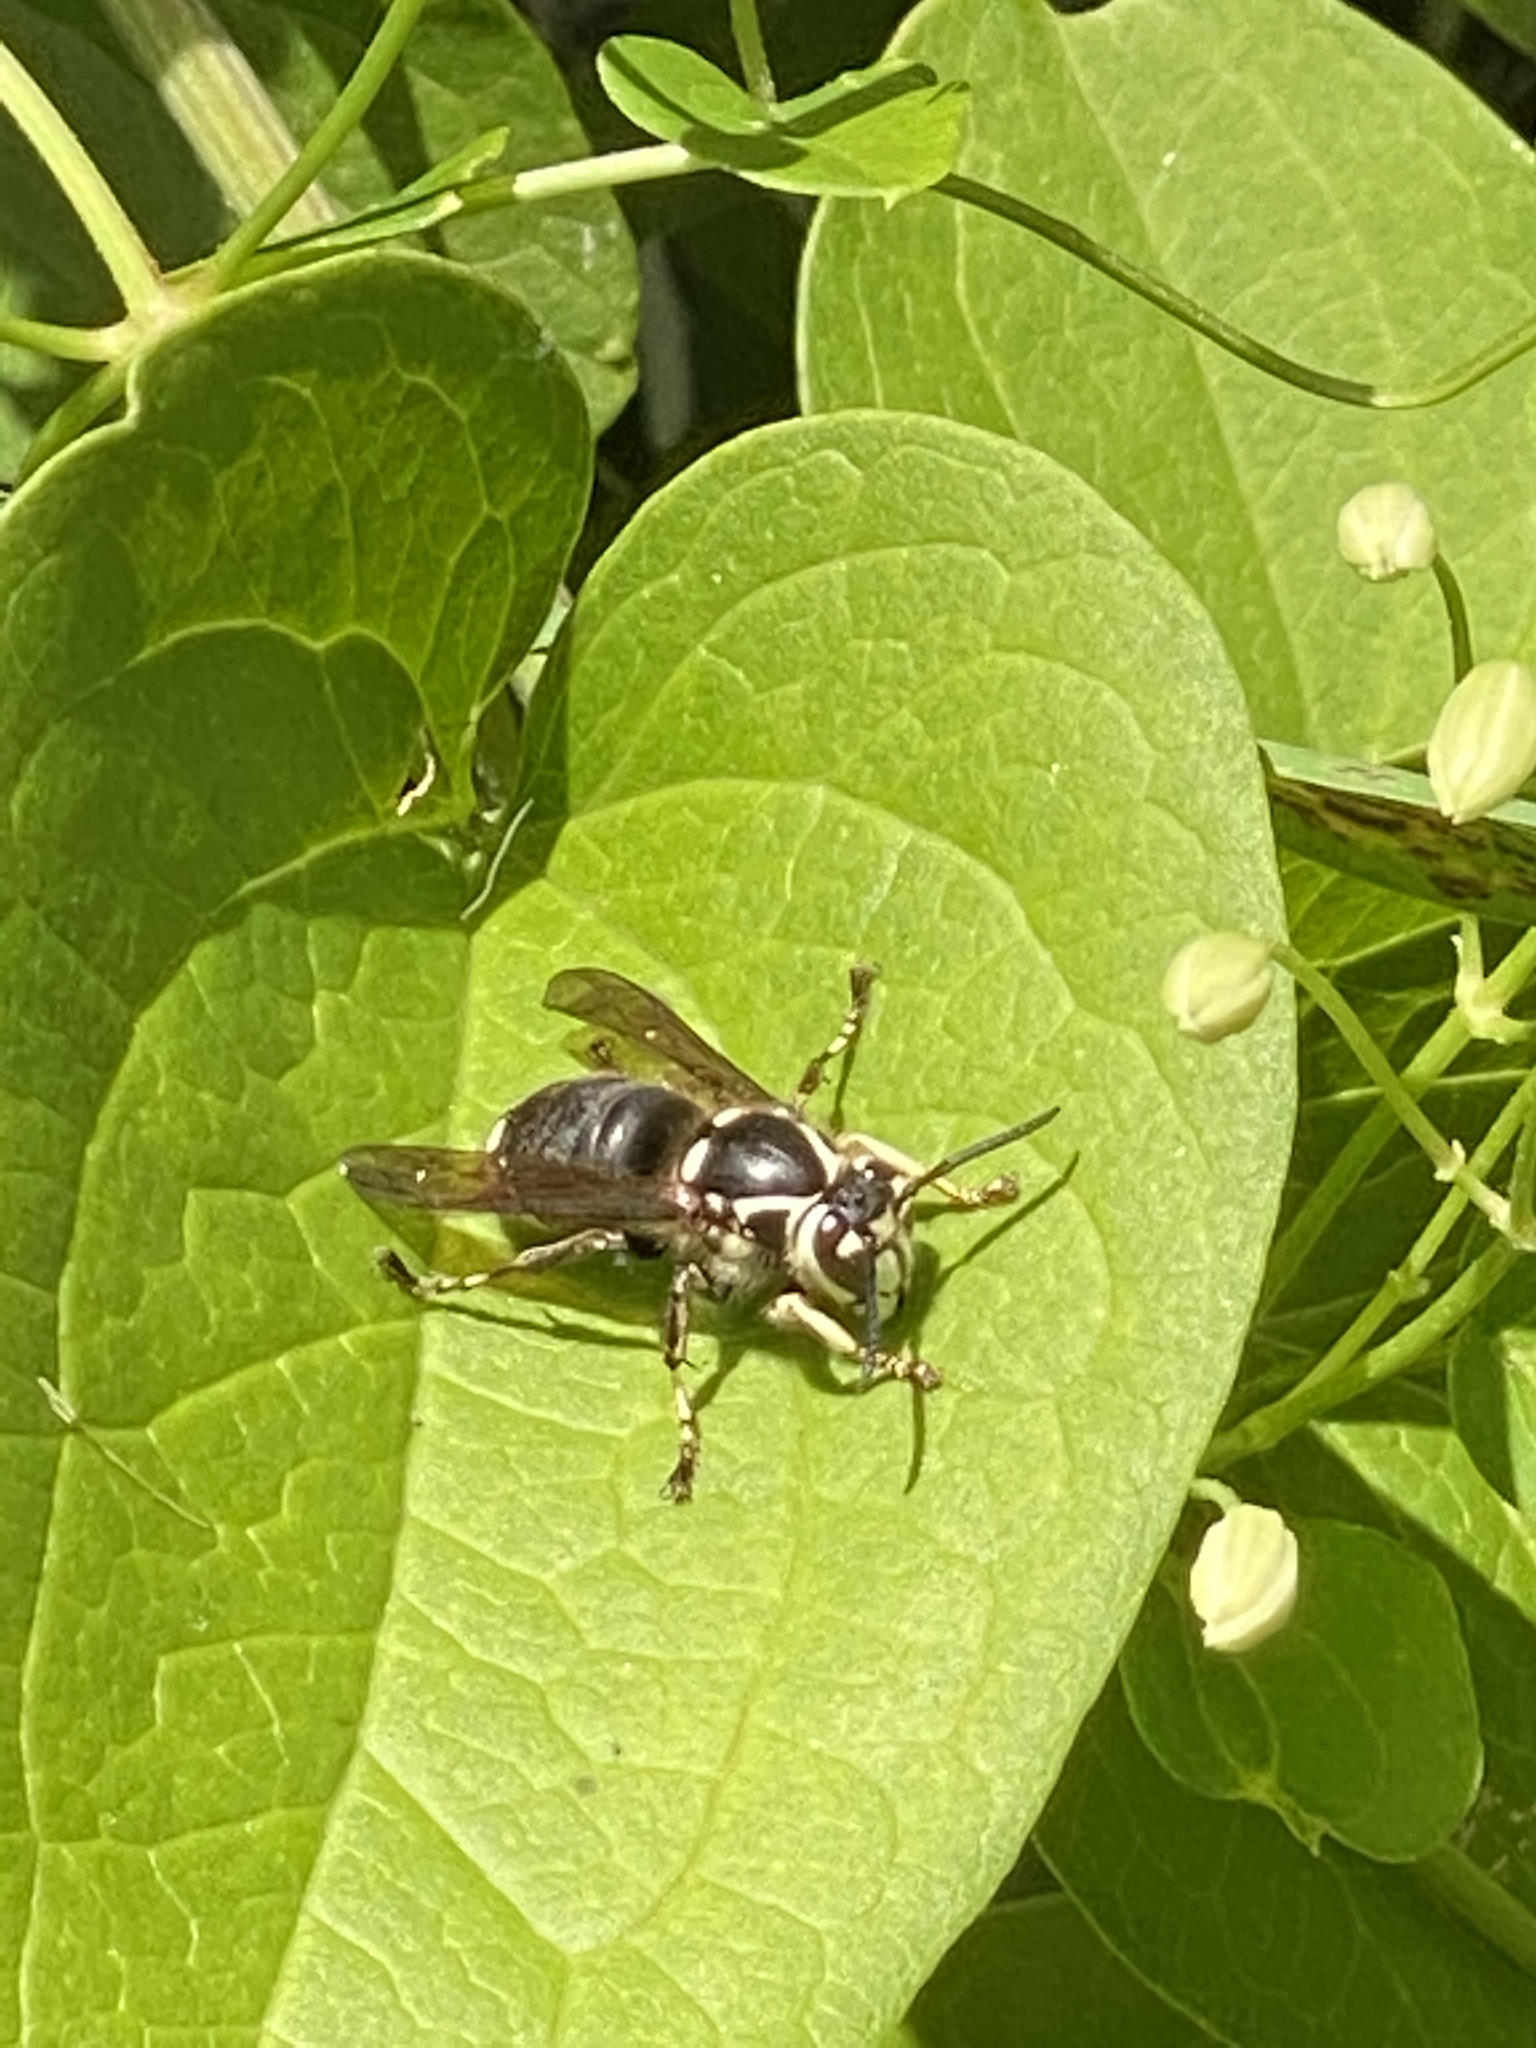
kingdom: Animalia
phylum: Arthropoda
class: Insecta
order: Hymenoptera
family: Vespidae
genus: Dolichovespula
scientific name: Dolichovespula maculata
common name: Bald-faced hornet
